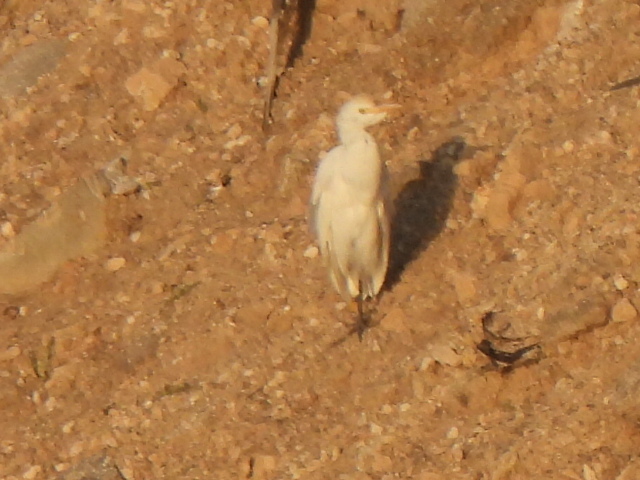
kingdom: Animalia
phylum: Chordata
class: Aves
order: Pelecaniformes
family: Ardeidae
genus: Bubulcus
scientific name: Bubulcus ibis
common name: Cattle egret
